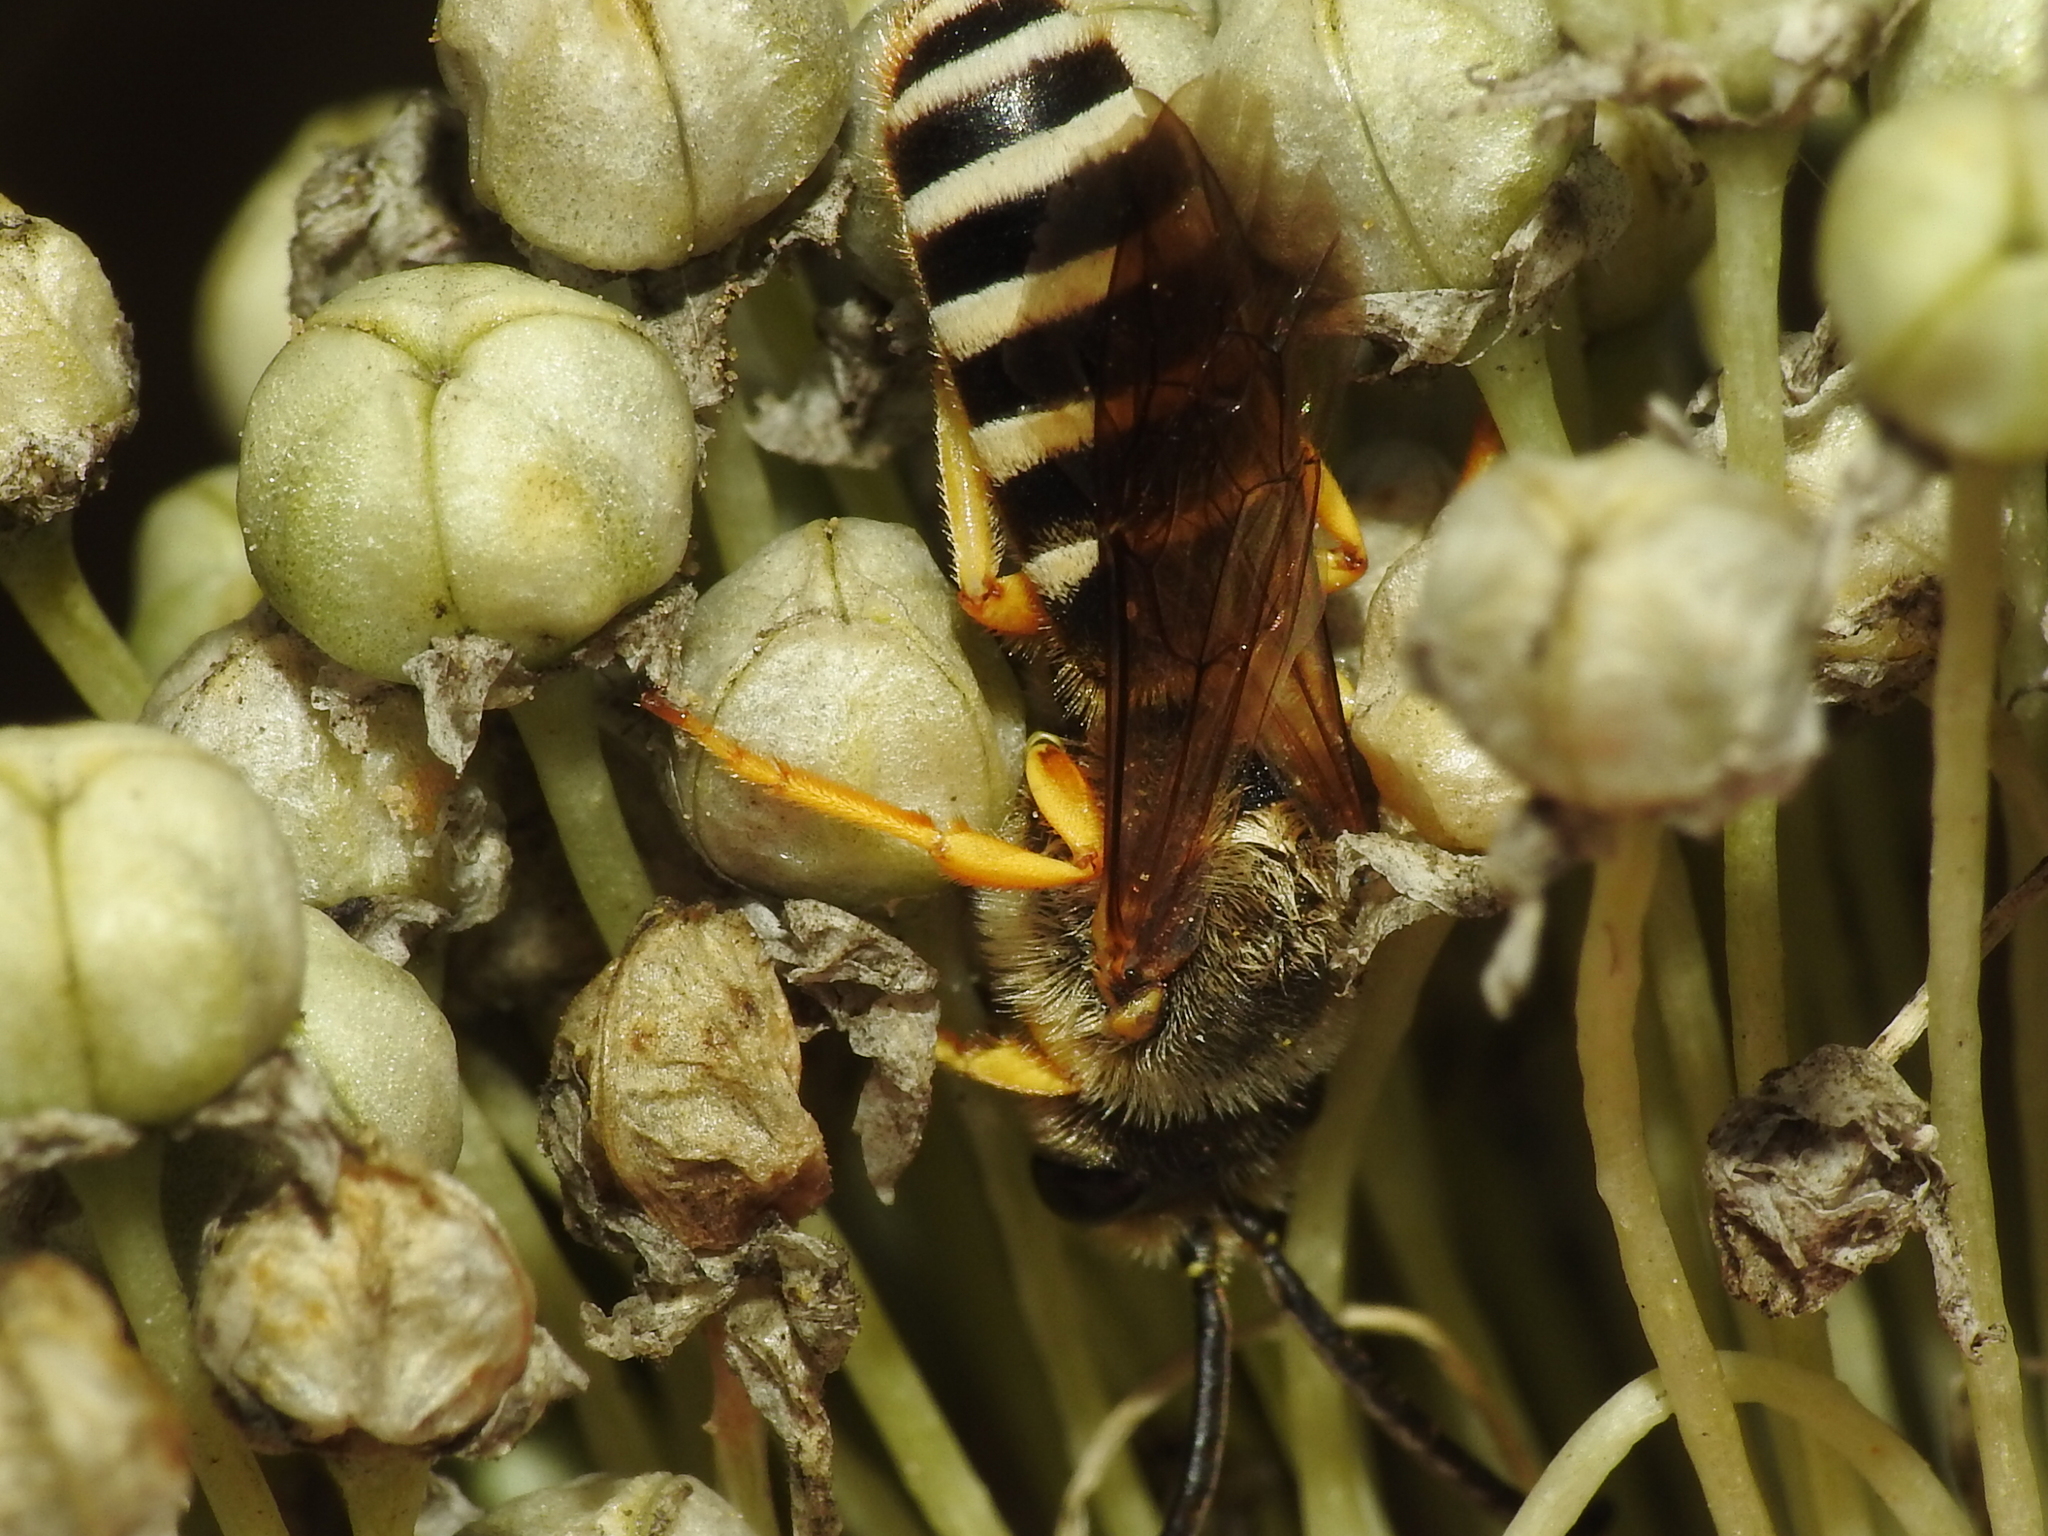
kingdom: Animalia
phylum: Arthropoda
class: Insecta
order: Hymenoptera
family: Halictidae
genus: Halictus
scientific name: Halictus scabiosae
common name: Great banded furrow bee
